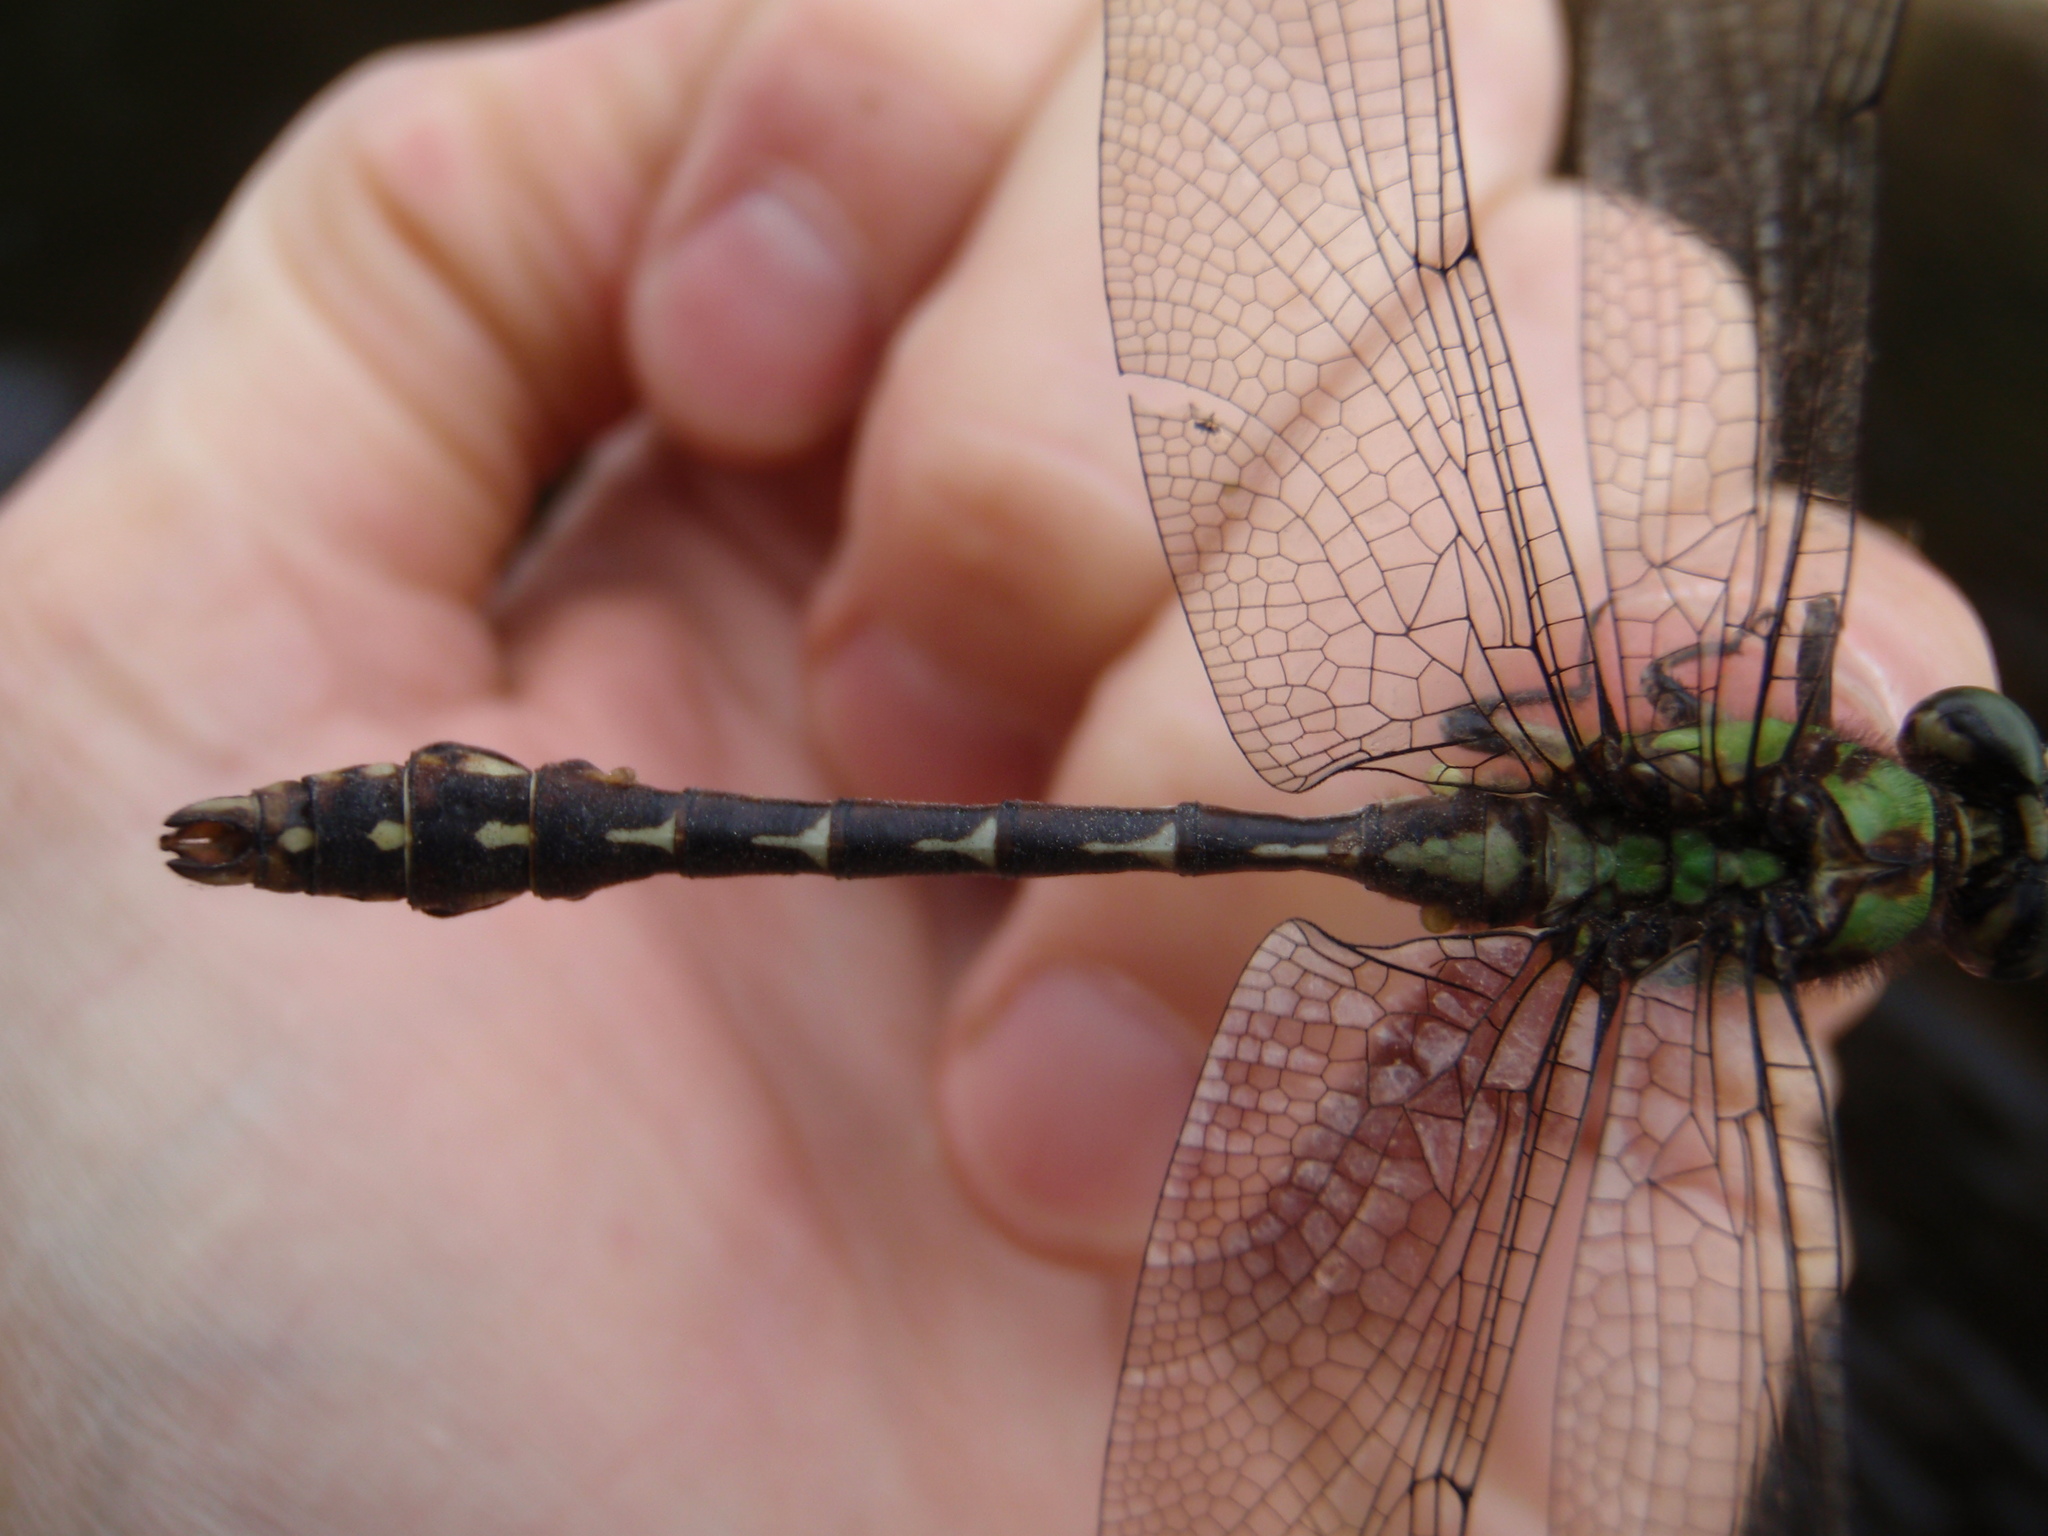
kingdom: Animalia
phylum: Arthropoda
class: Insecta
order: Odonata
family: Gomphidae
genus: Ophiogomphus
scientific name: Ophiogomphus colubrinus
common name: Boreal snaketail
